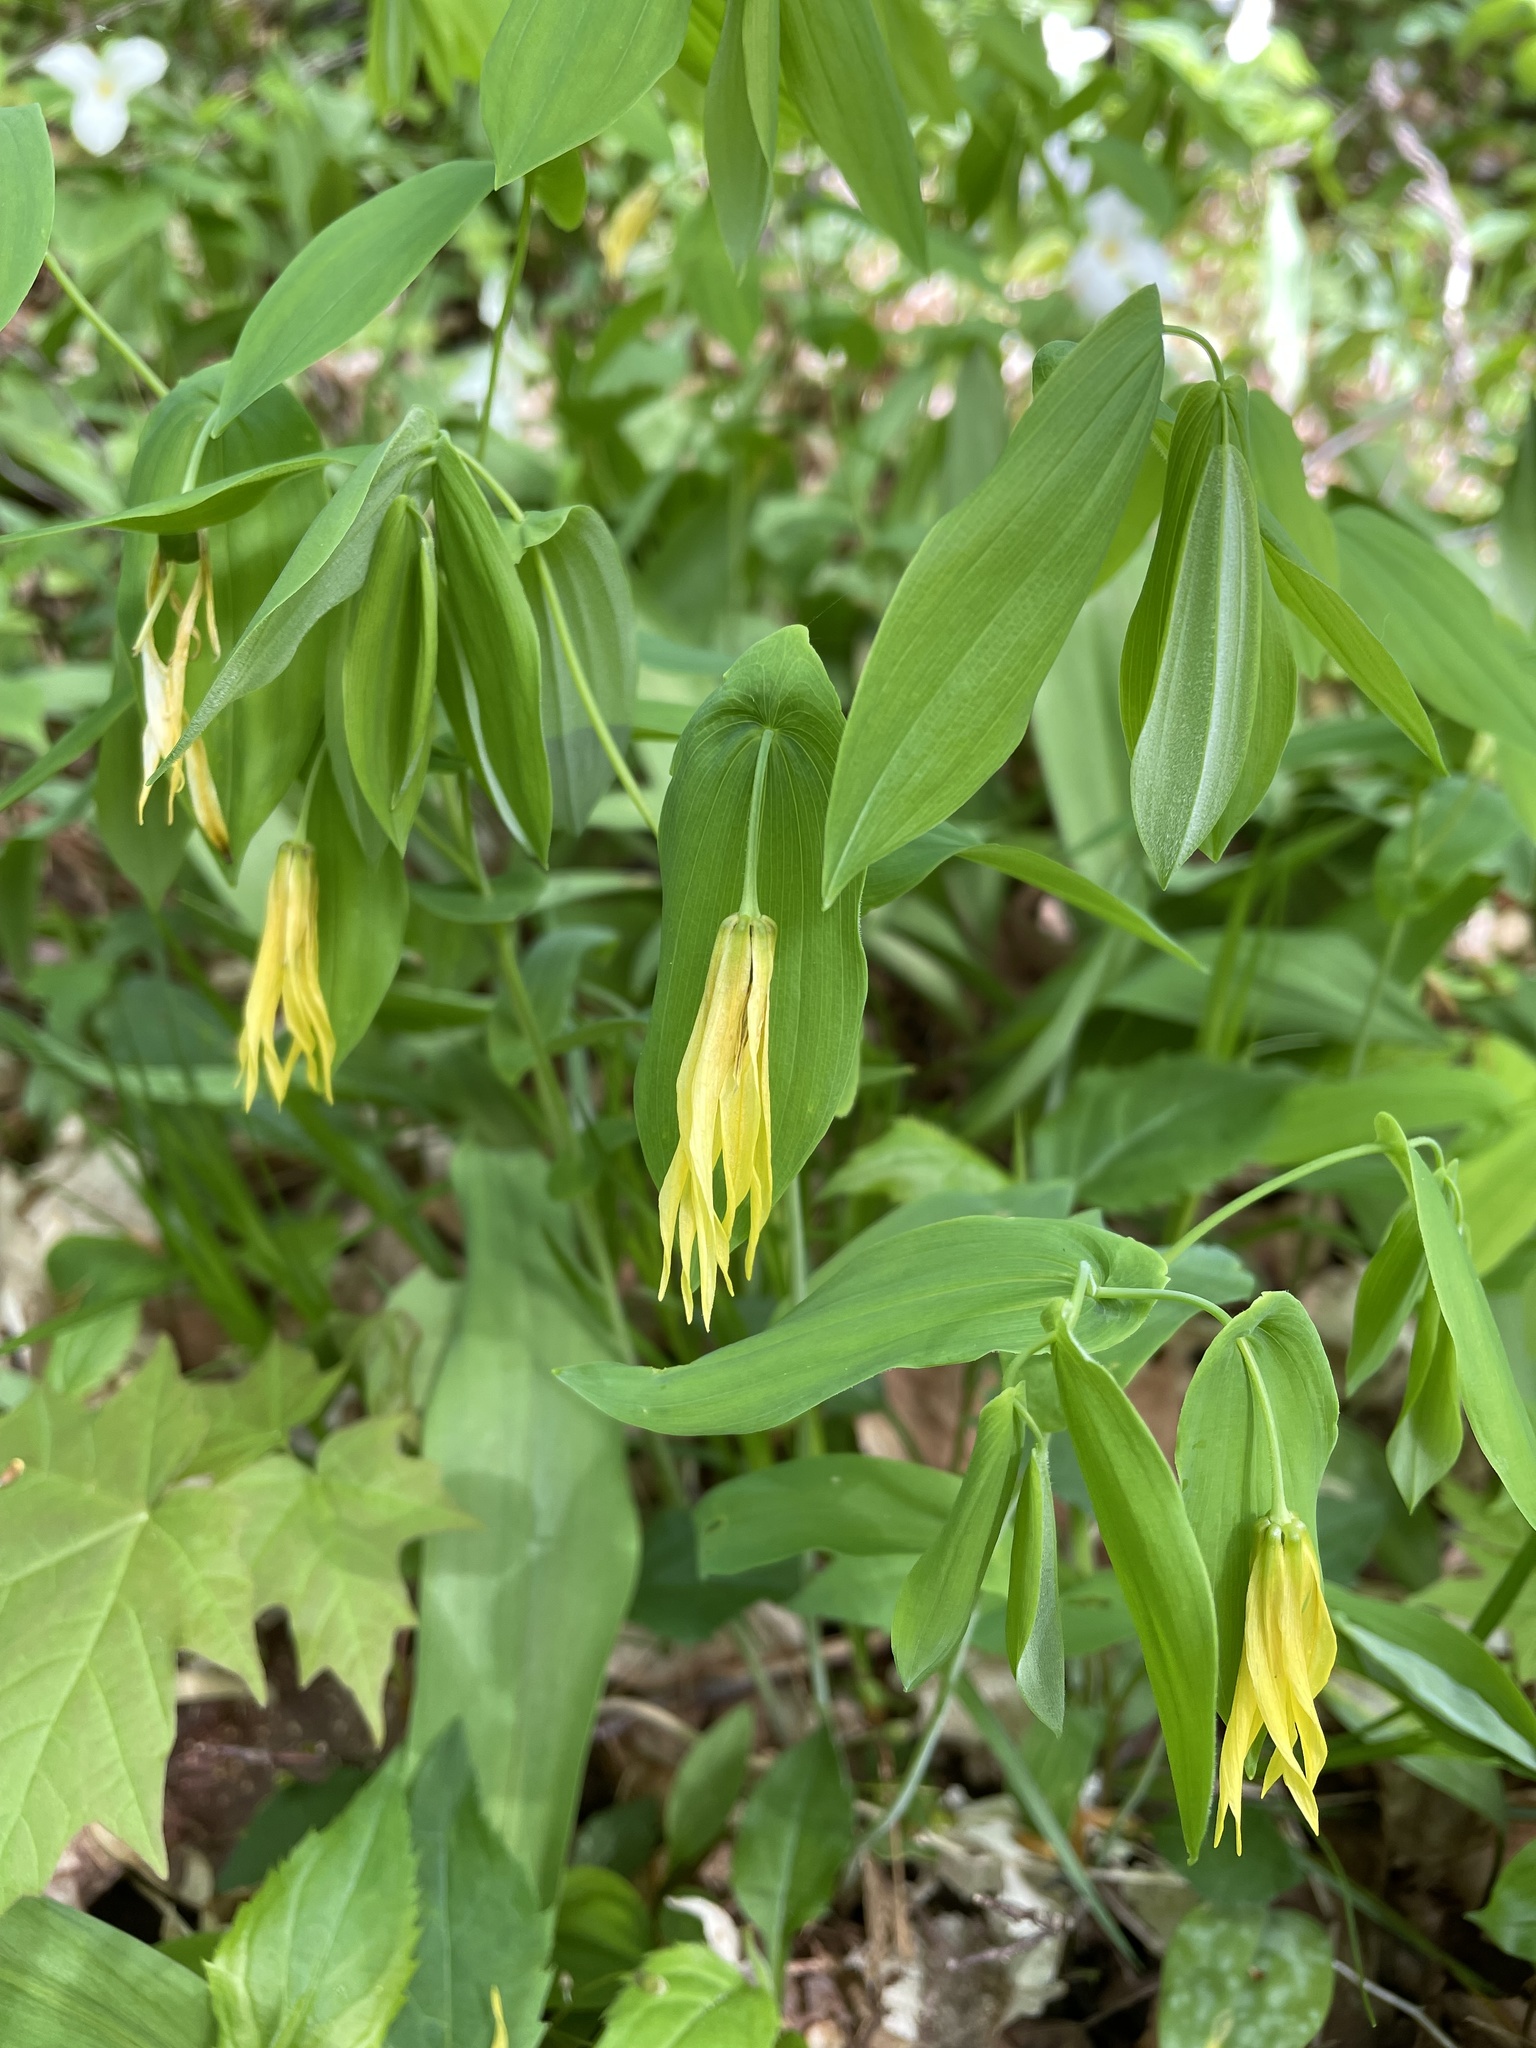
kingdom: Plantae
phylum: Tracheophyta
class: Liliopsida
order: Liliales
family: Colchicaceae
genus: Uvularia
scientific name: Uvularia grandiflora
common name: Bellwort
